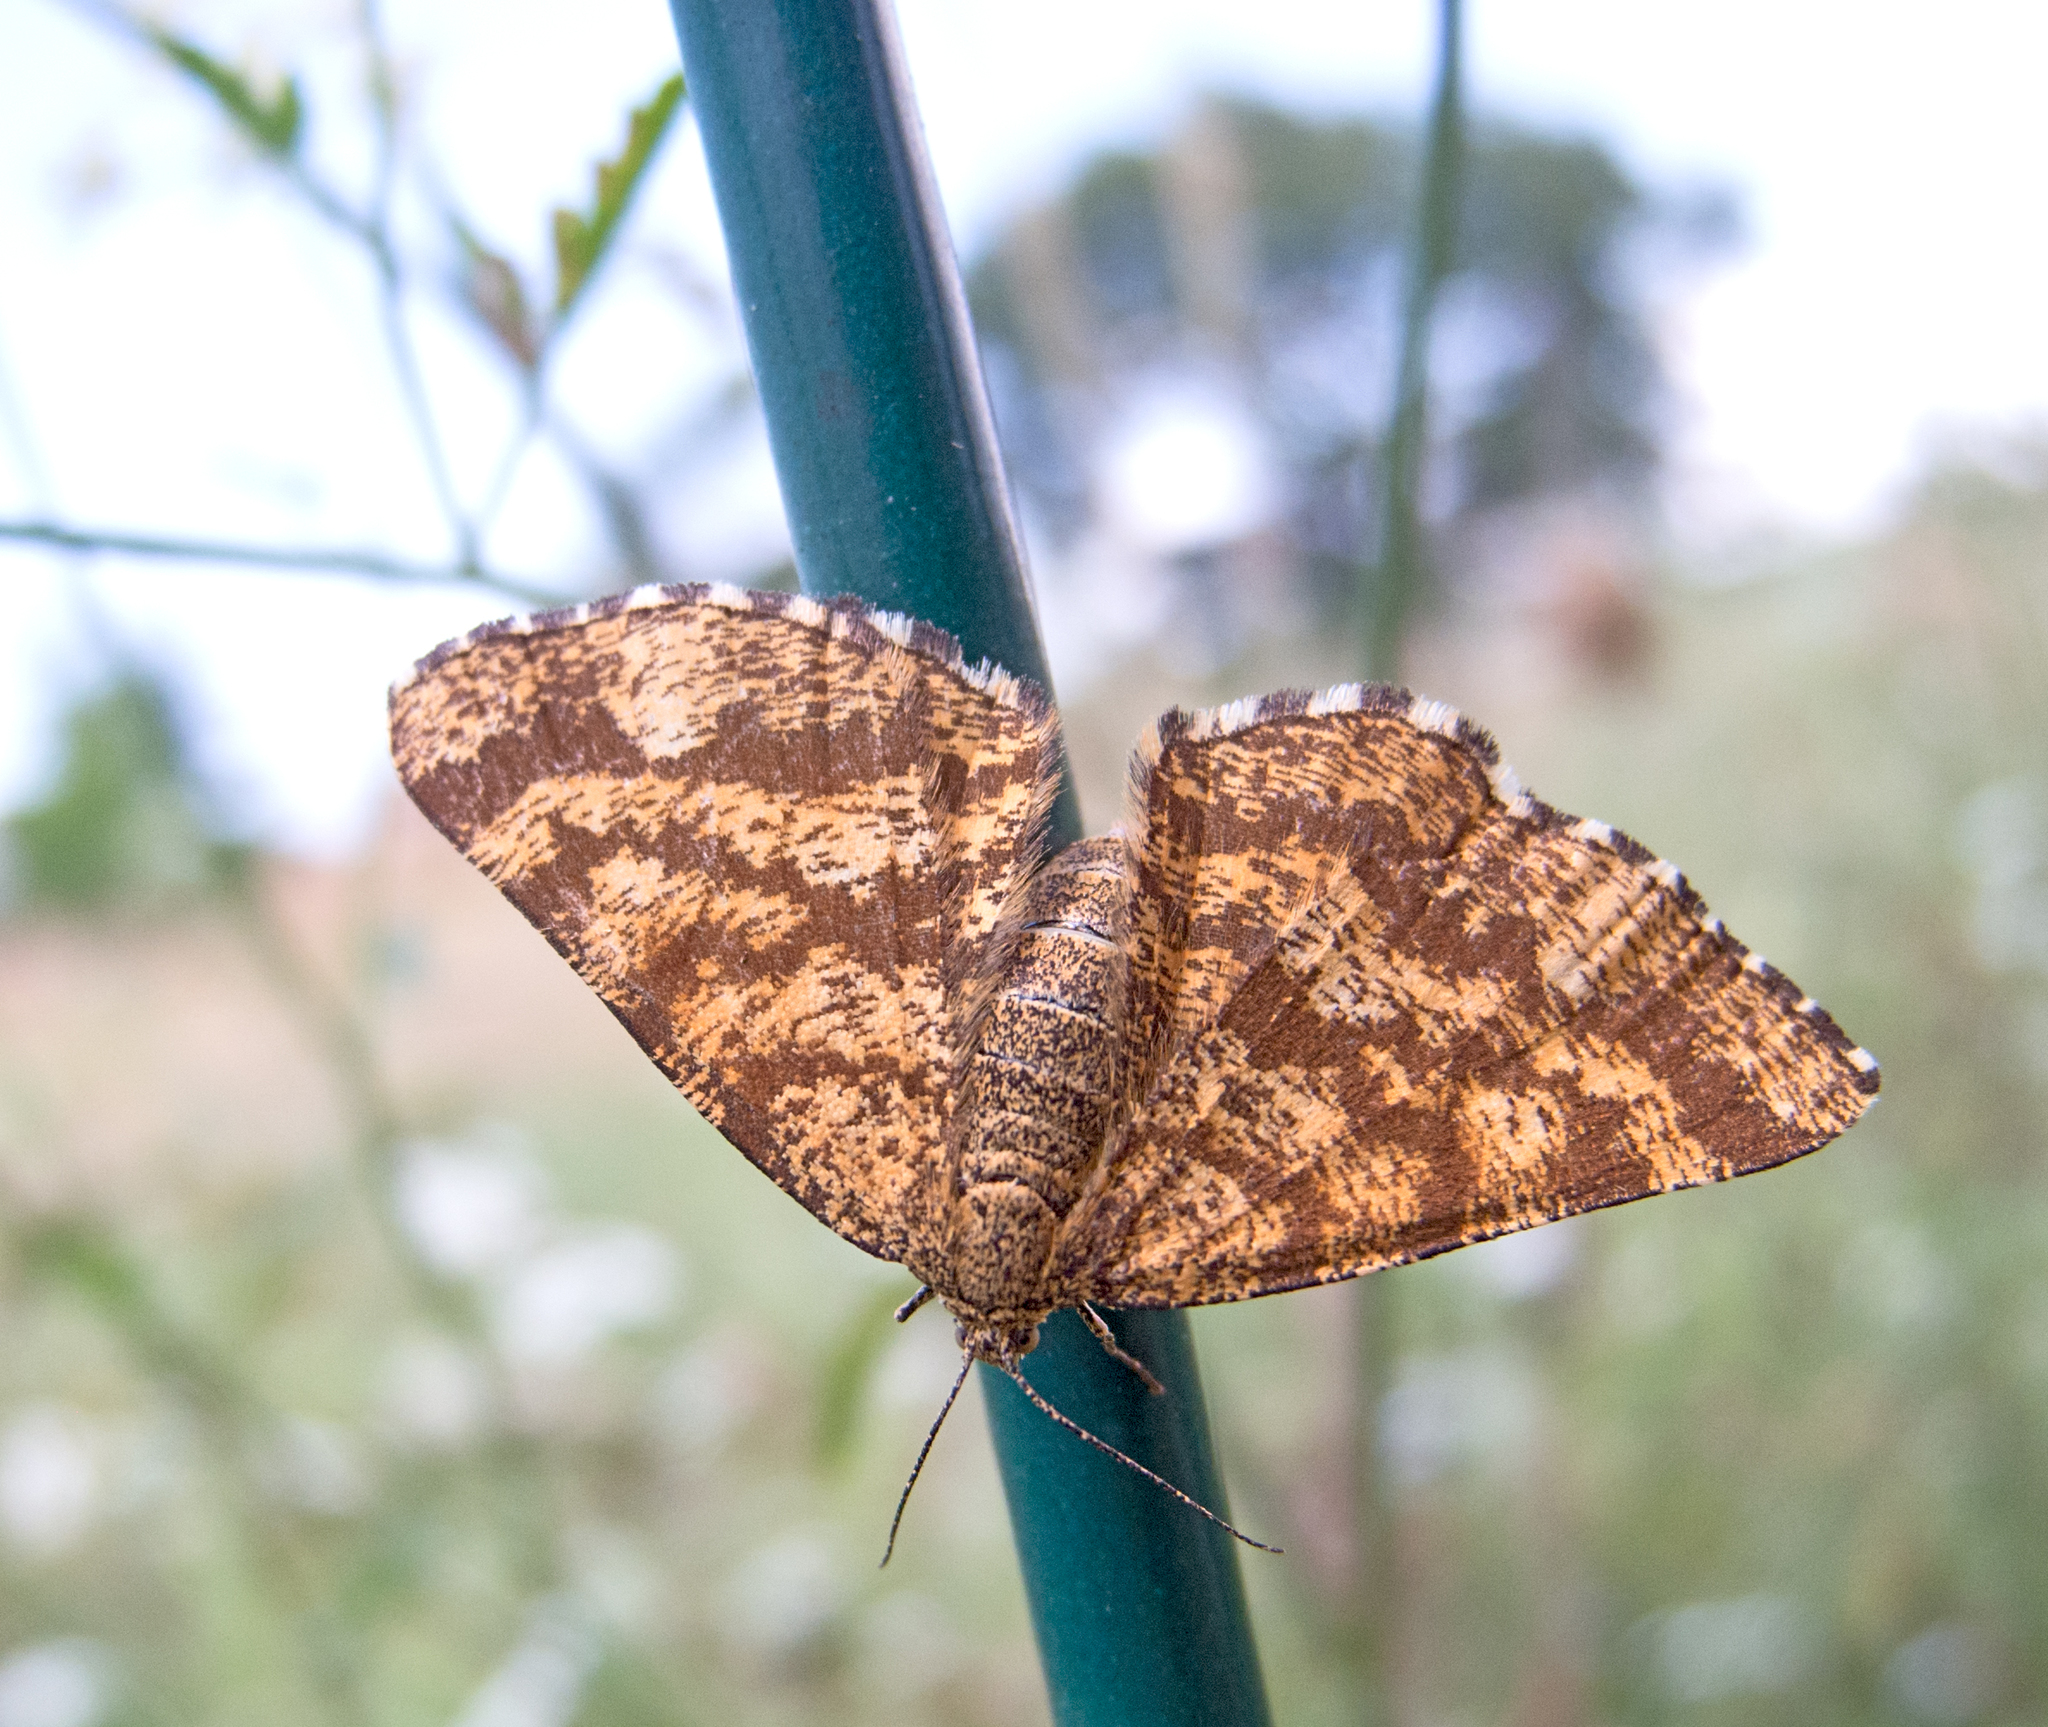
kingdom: Animalia
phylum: Arthropoda
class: Insecta
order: Lepidoptera
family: Geometridae
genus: Ematurga
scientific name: Ematurga atomaria
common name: Common heath
